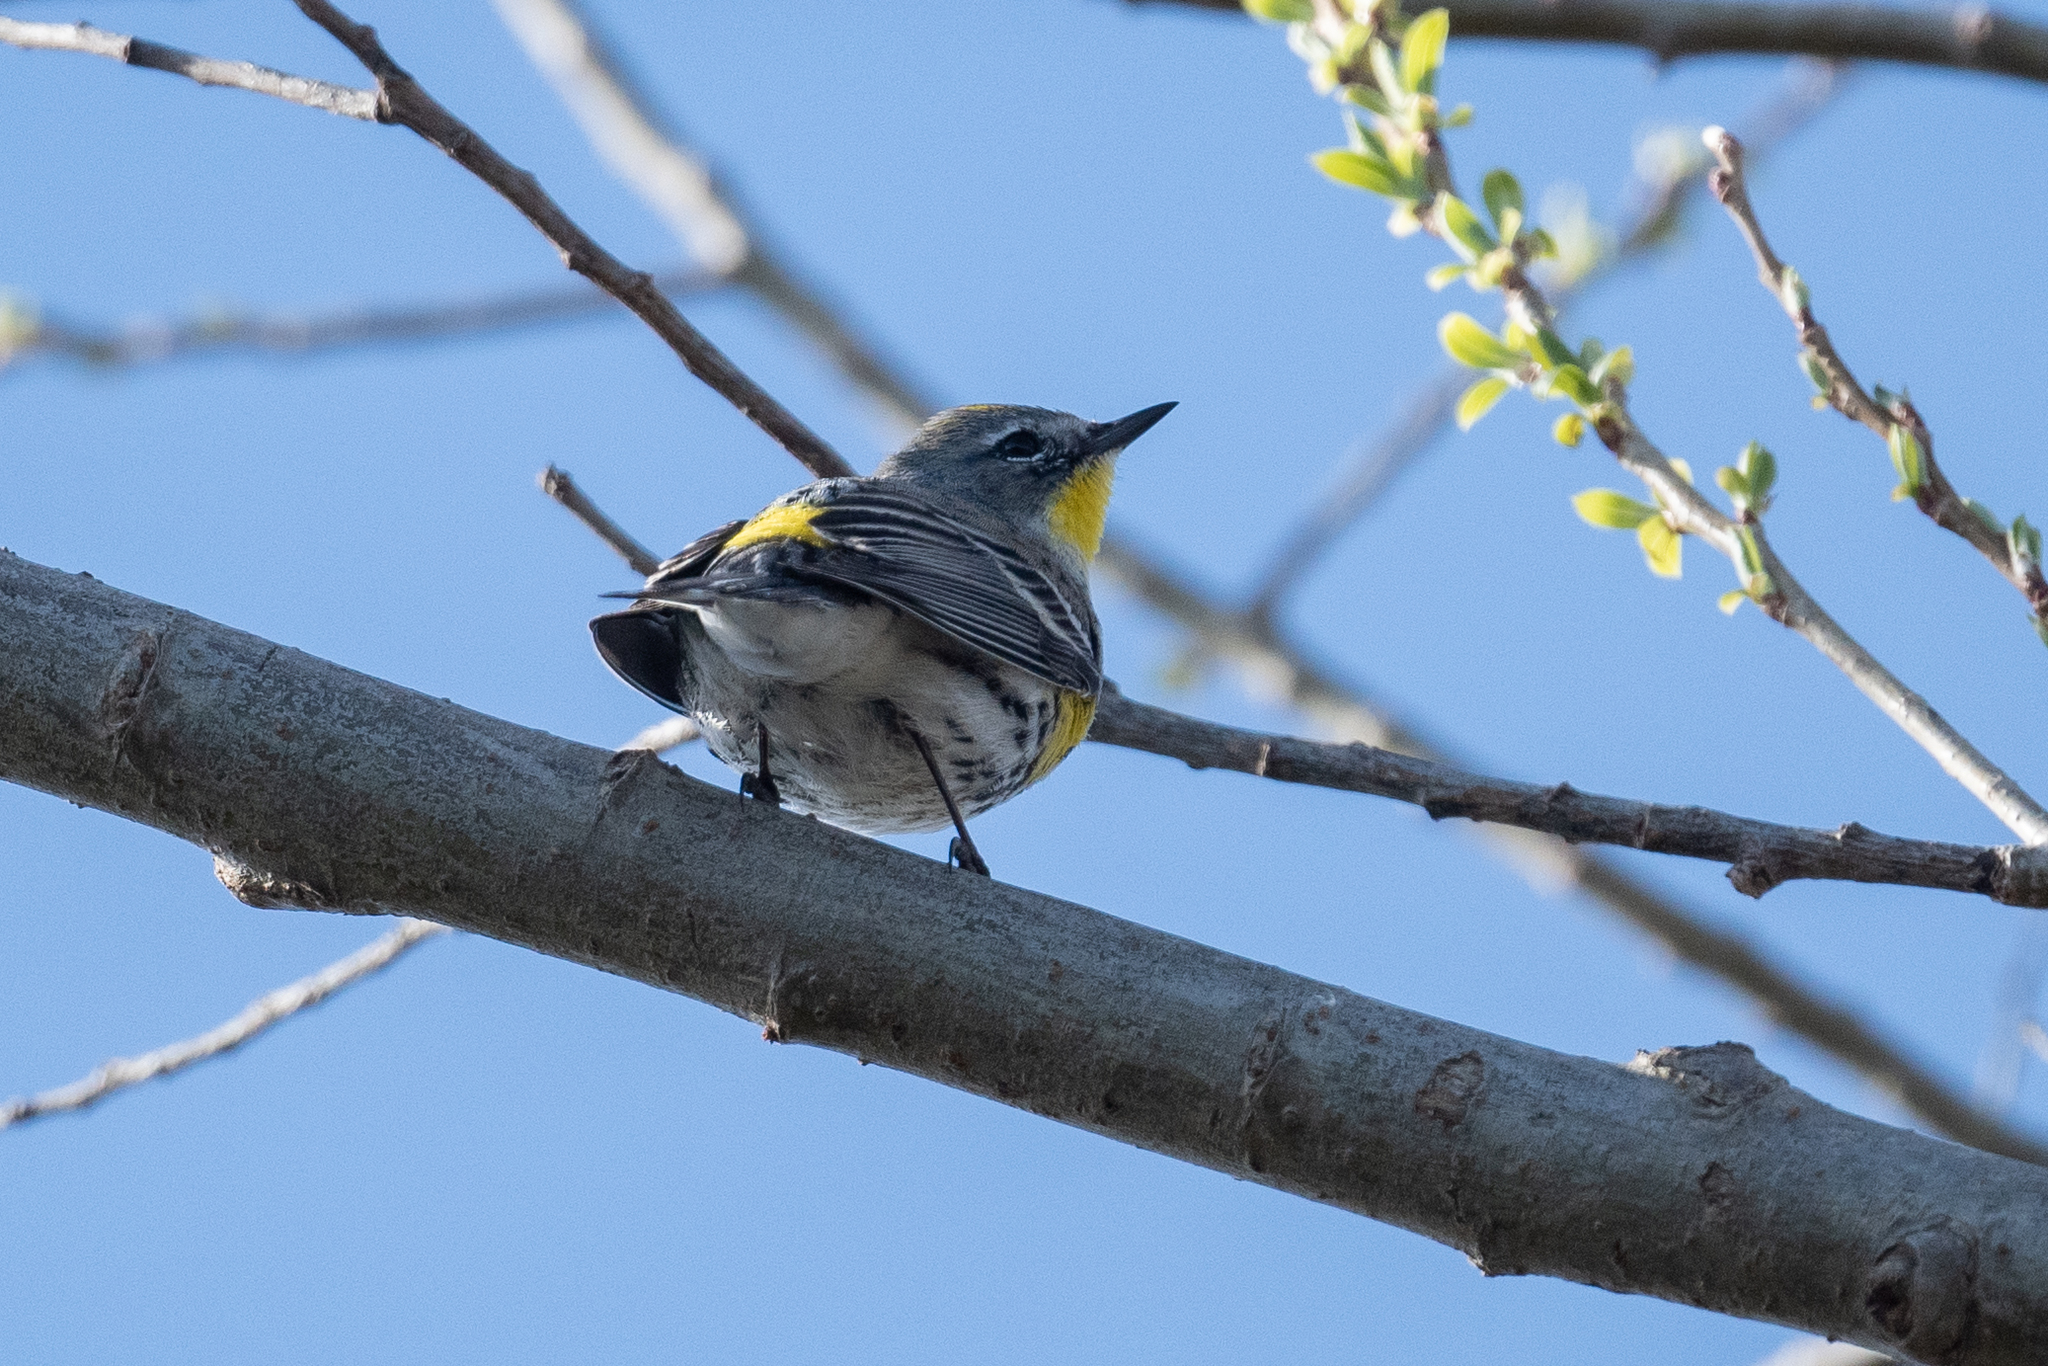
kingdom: Animalia
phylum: Chordata
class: Aves
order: Passeriformes
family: Parulidae
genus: Setophaga
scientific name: Setophaga coronata
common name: Myrtle warbler
